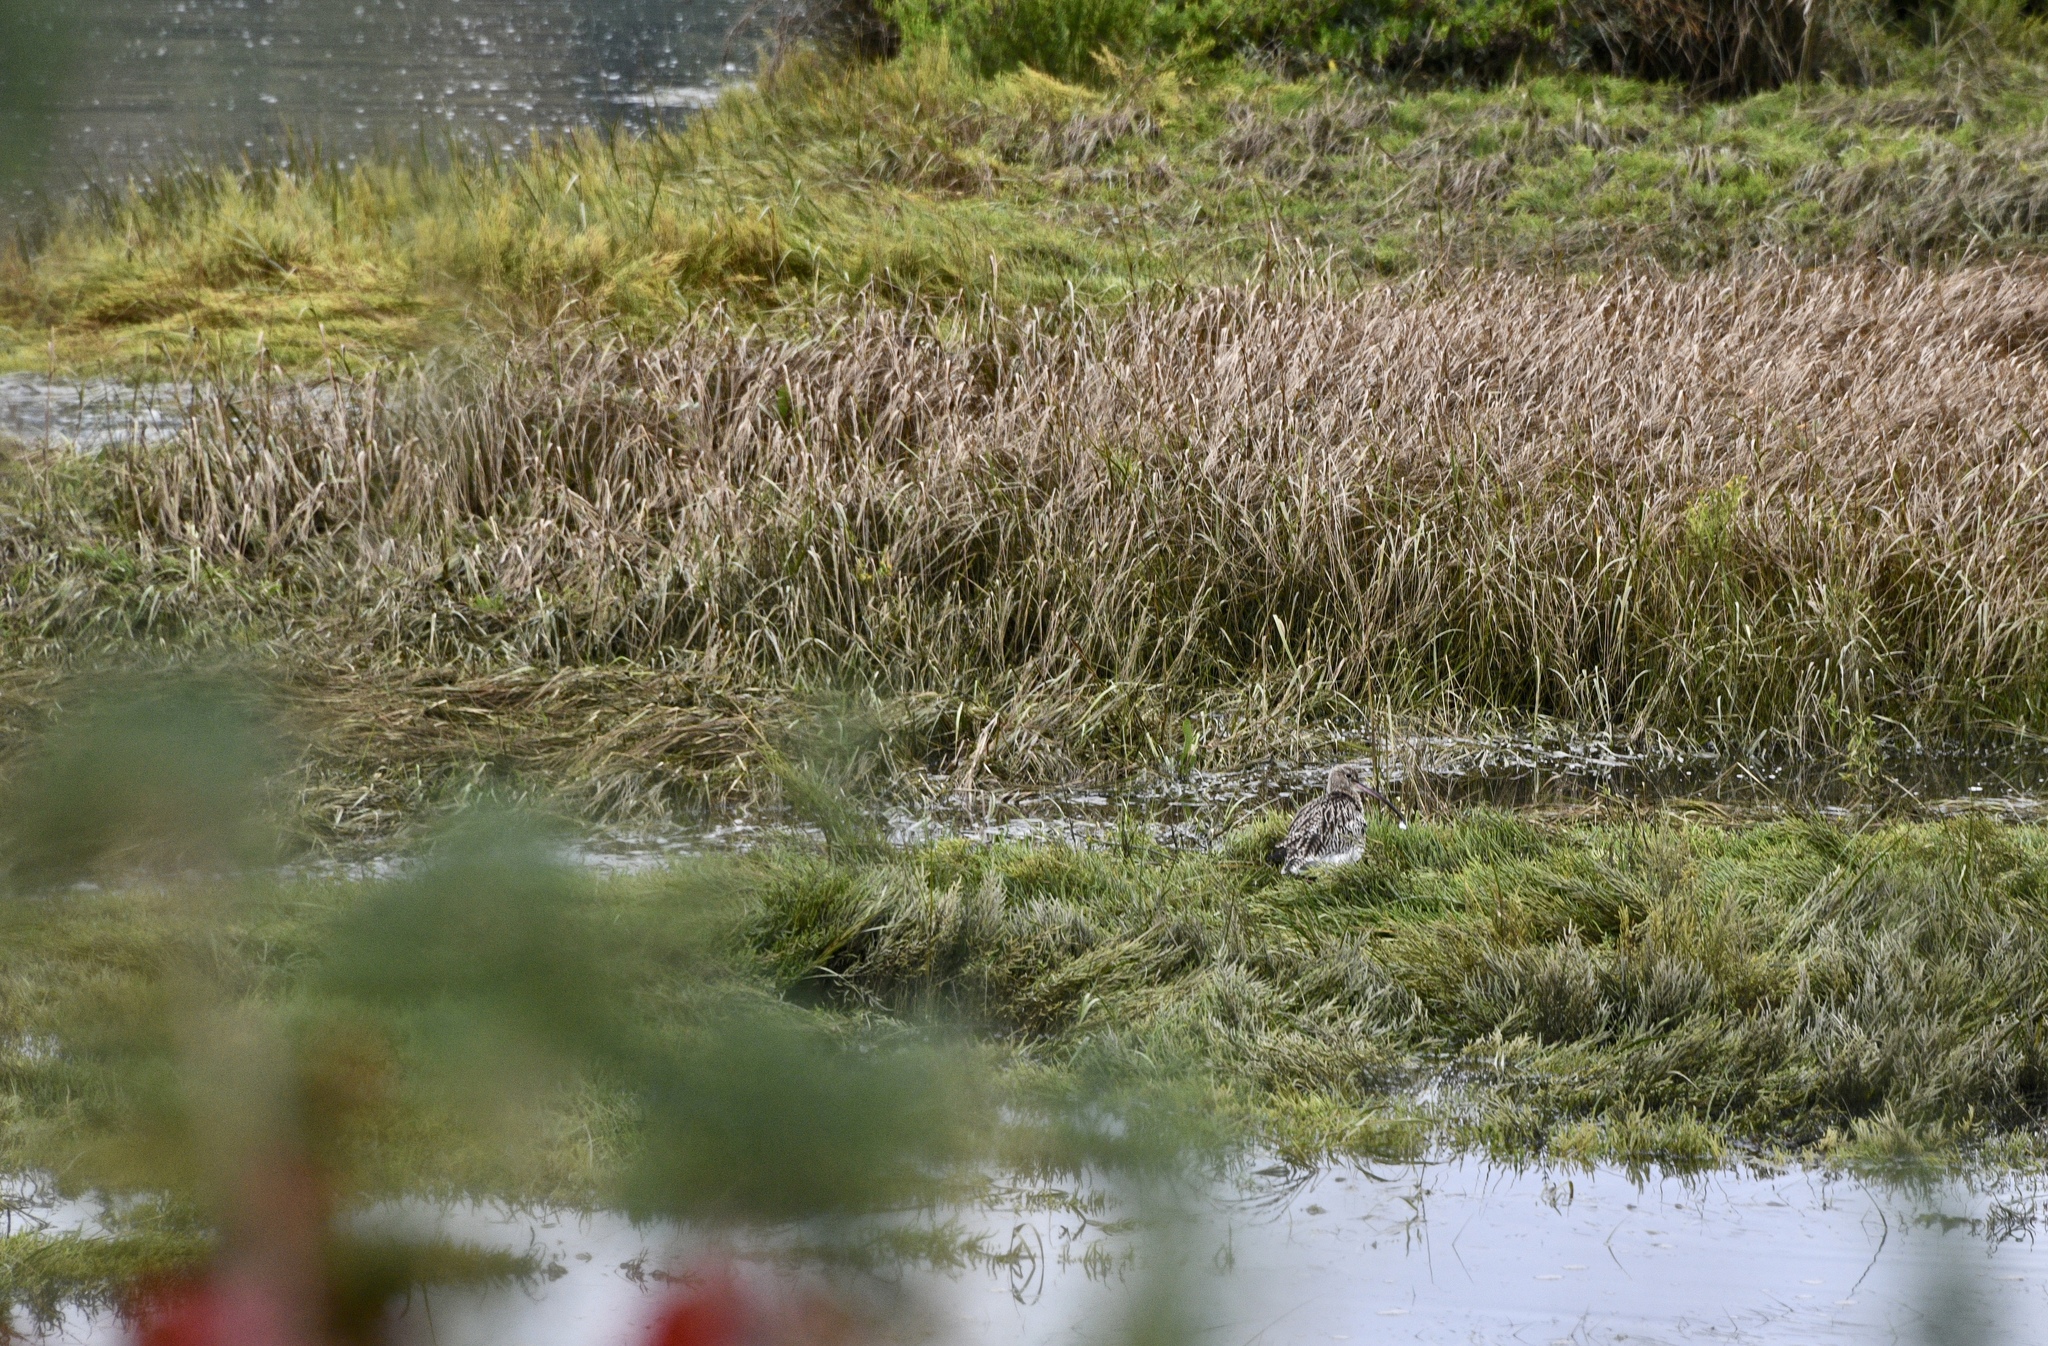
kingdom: Animalia
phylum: Chordata
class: Aves
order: Charadriiformes
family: Scolopacidae
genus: Numenius
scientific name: Numenius arquata
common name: Eurasian curlew
